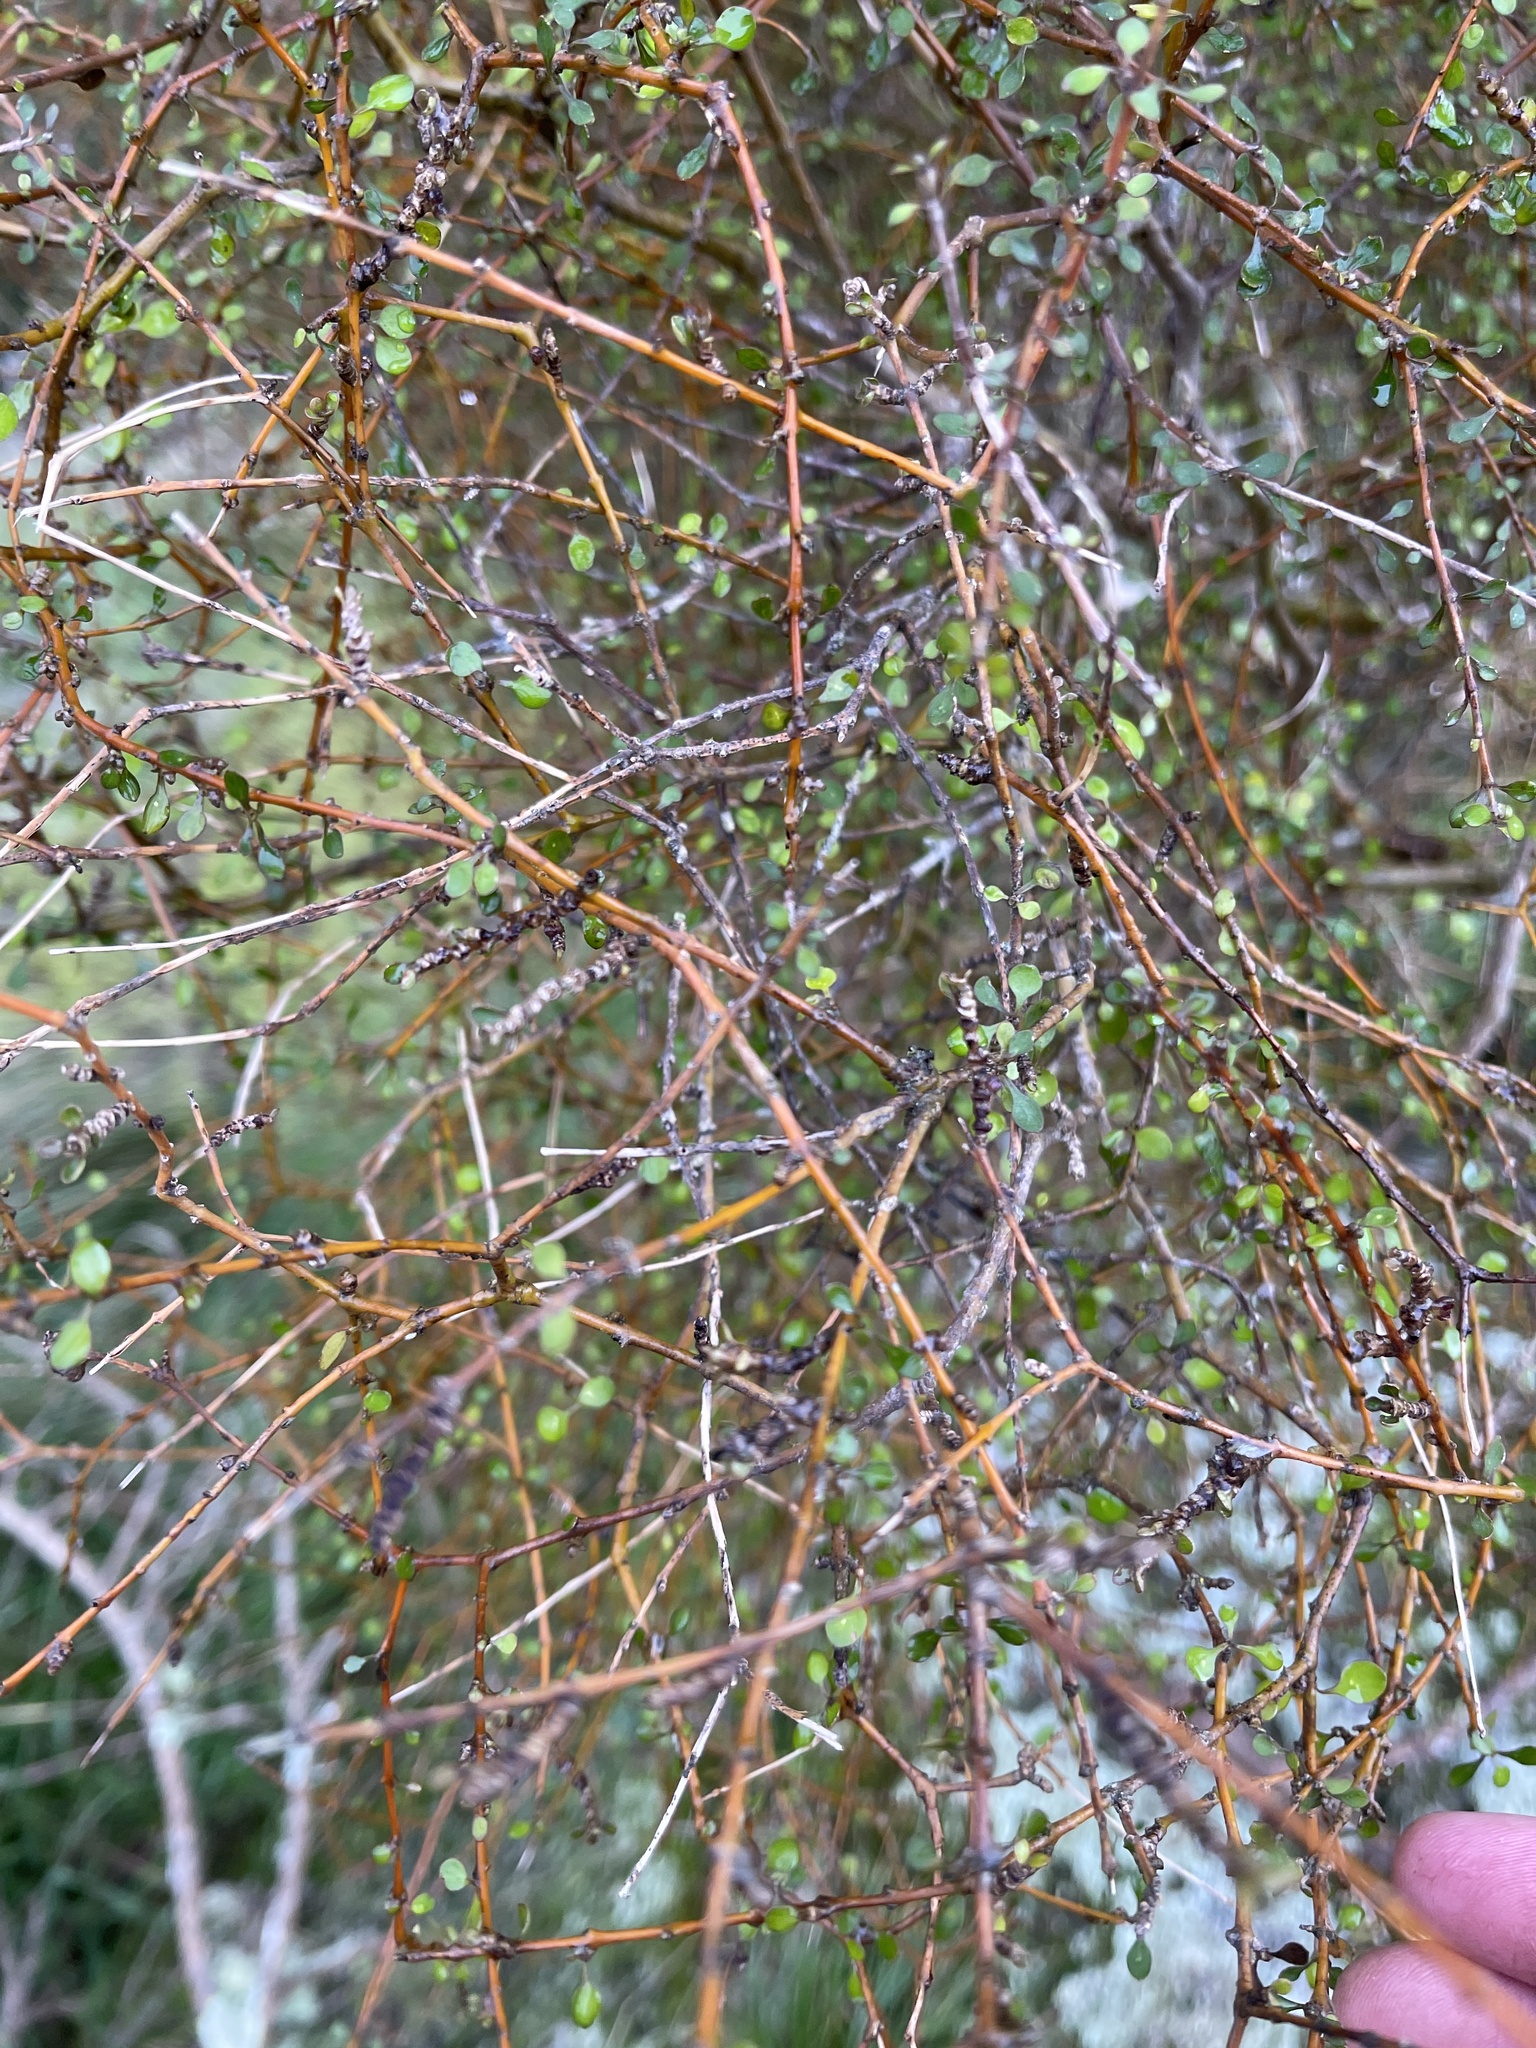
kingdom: Plantae
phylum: Tracheophyta
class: Magnoliopsida
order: Gentianales
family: Rubiaceae
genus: Coprosma
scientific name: Coprosma virescens
